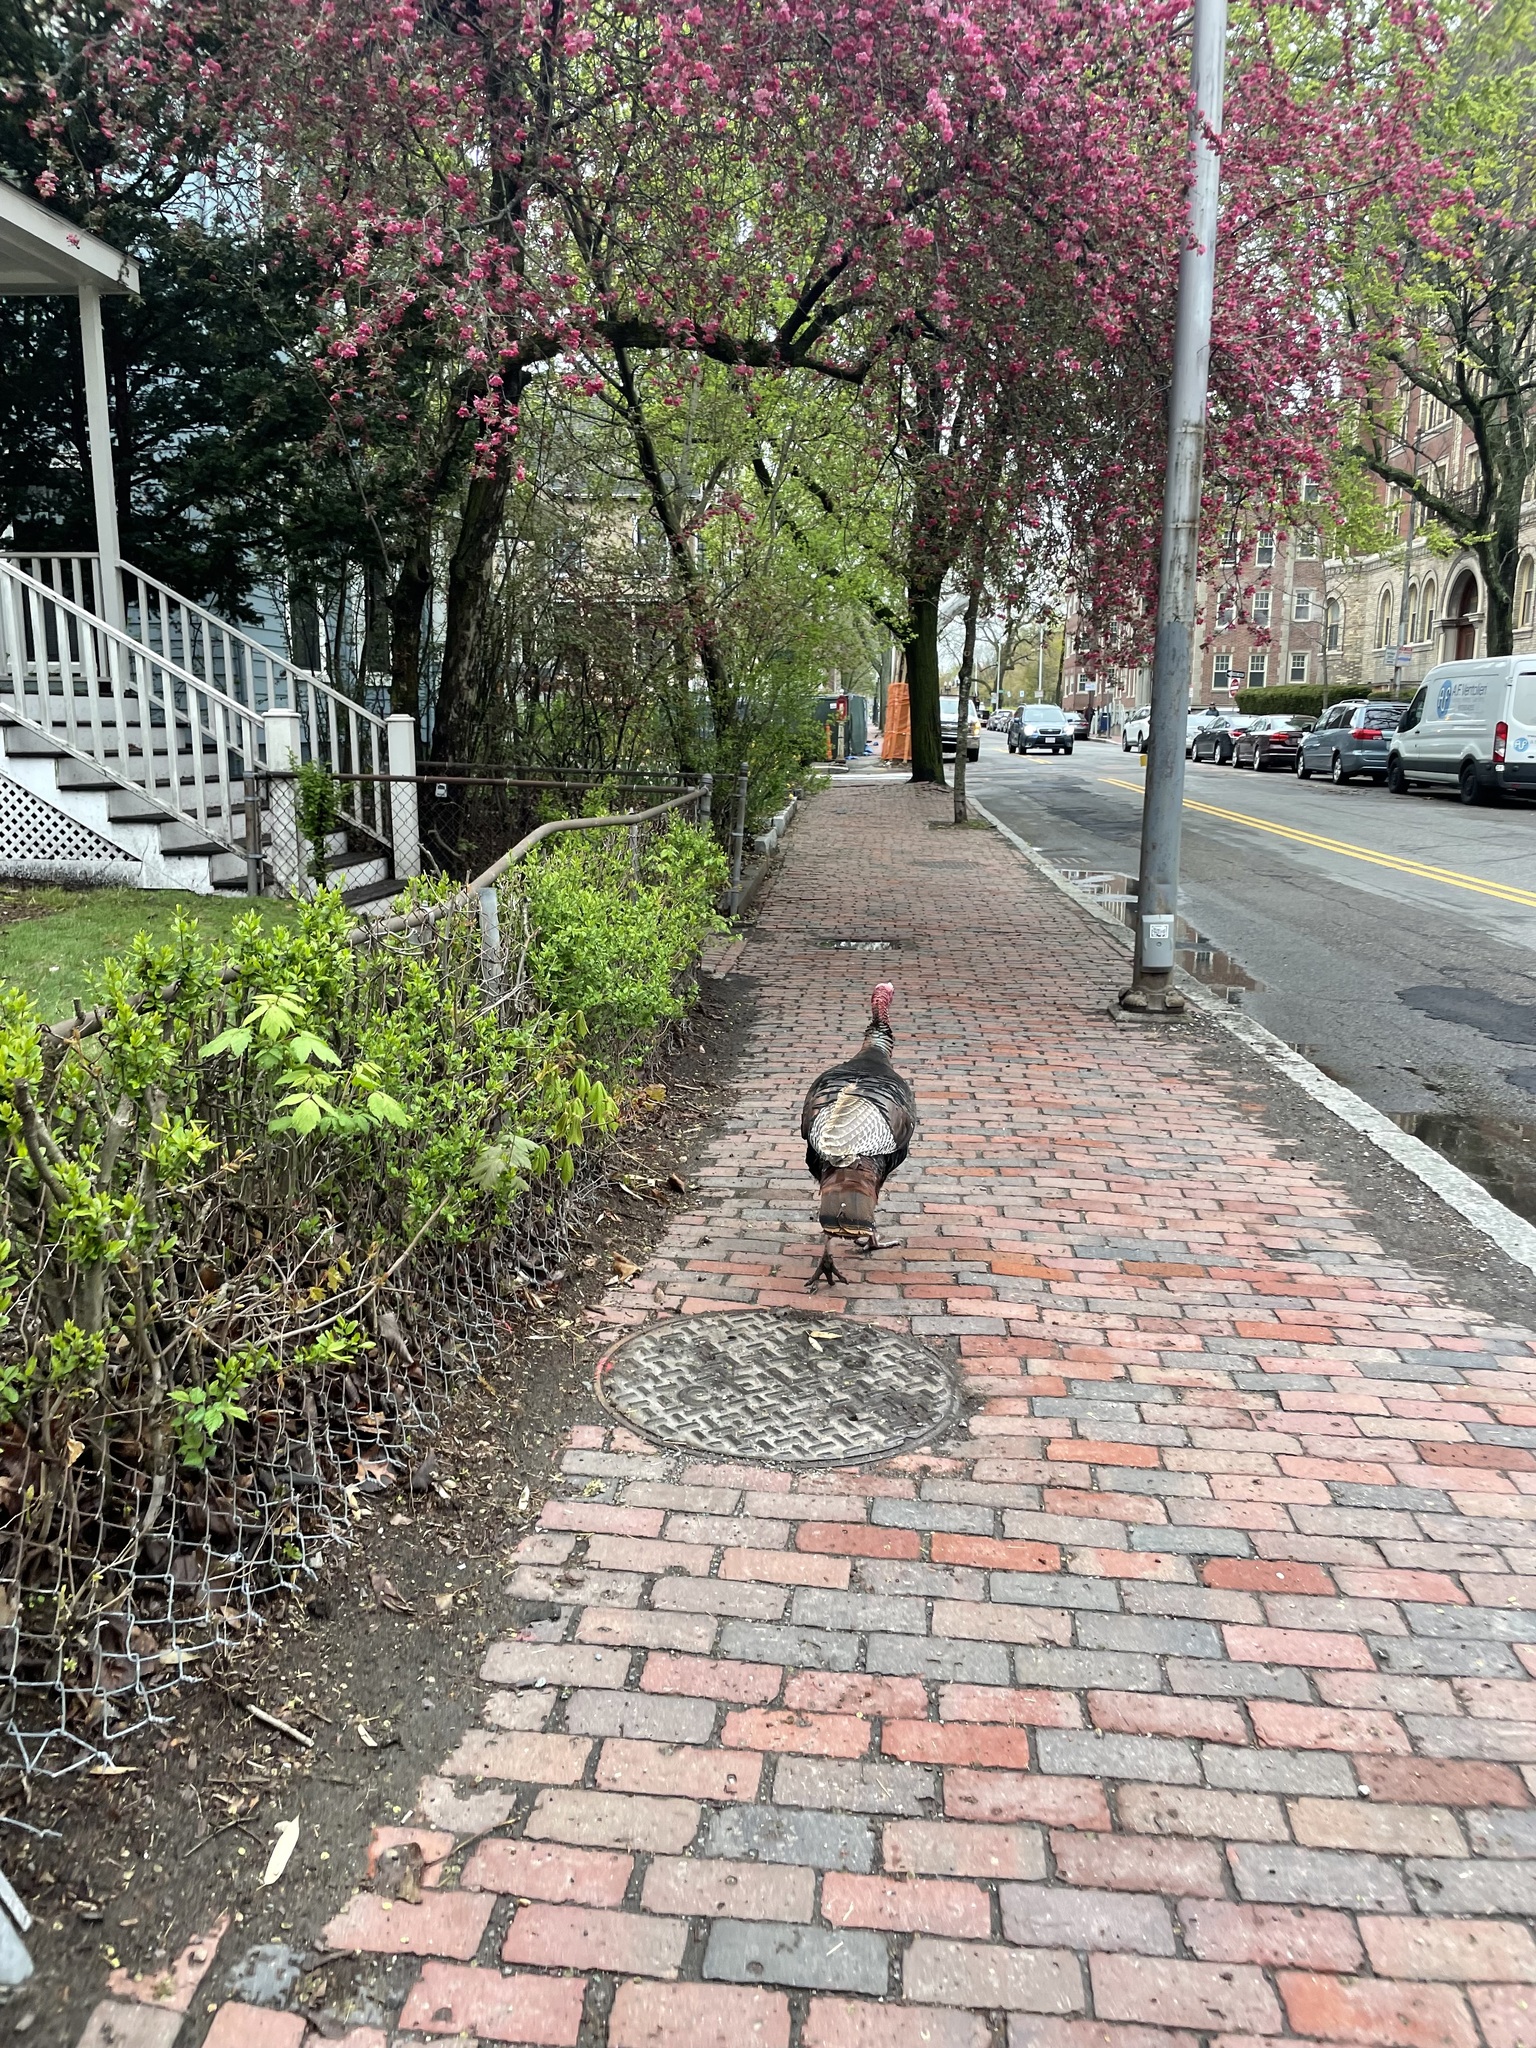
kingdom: Animalia
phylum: Chordata
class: Aves
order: Galliformes
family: Phasianidae
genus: Meleagris
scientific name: Meleagris gallopavo
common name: Wild turkey
